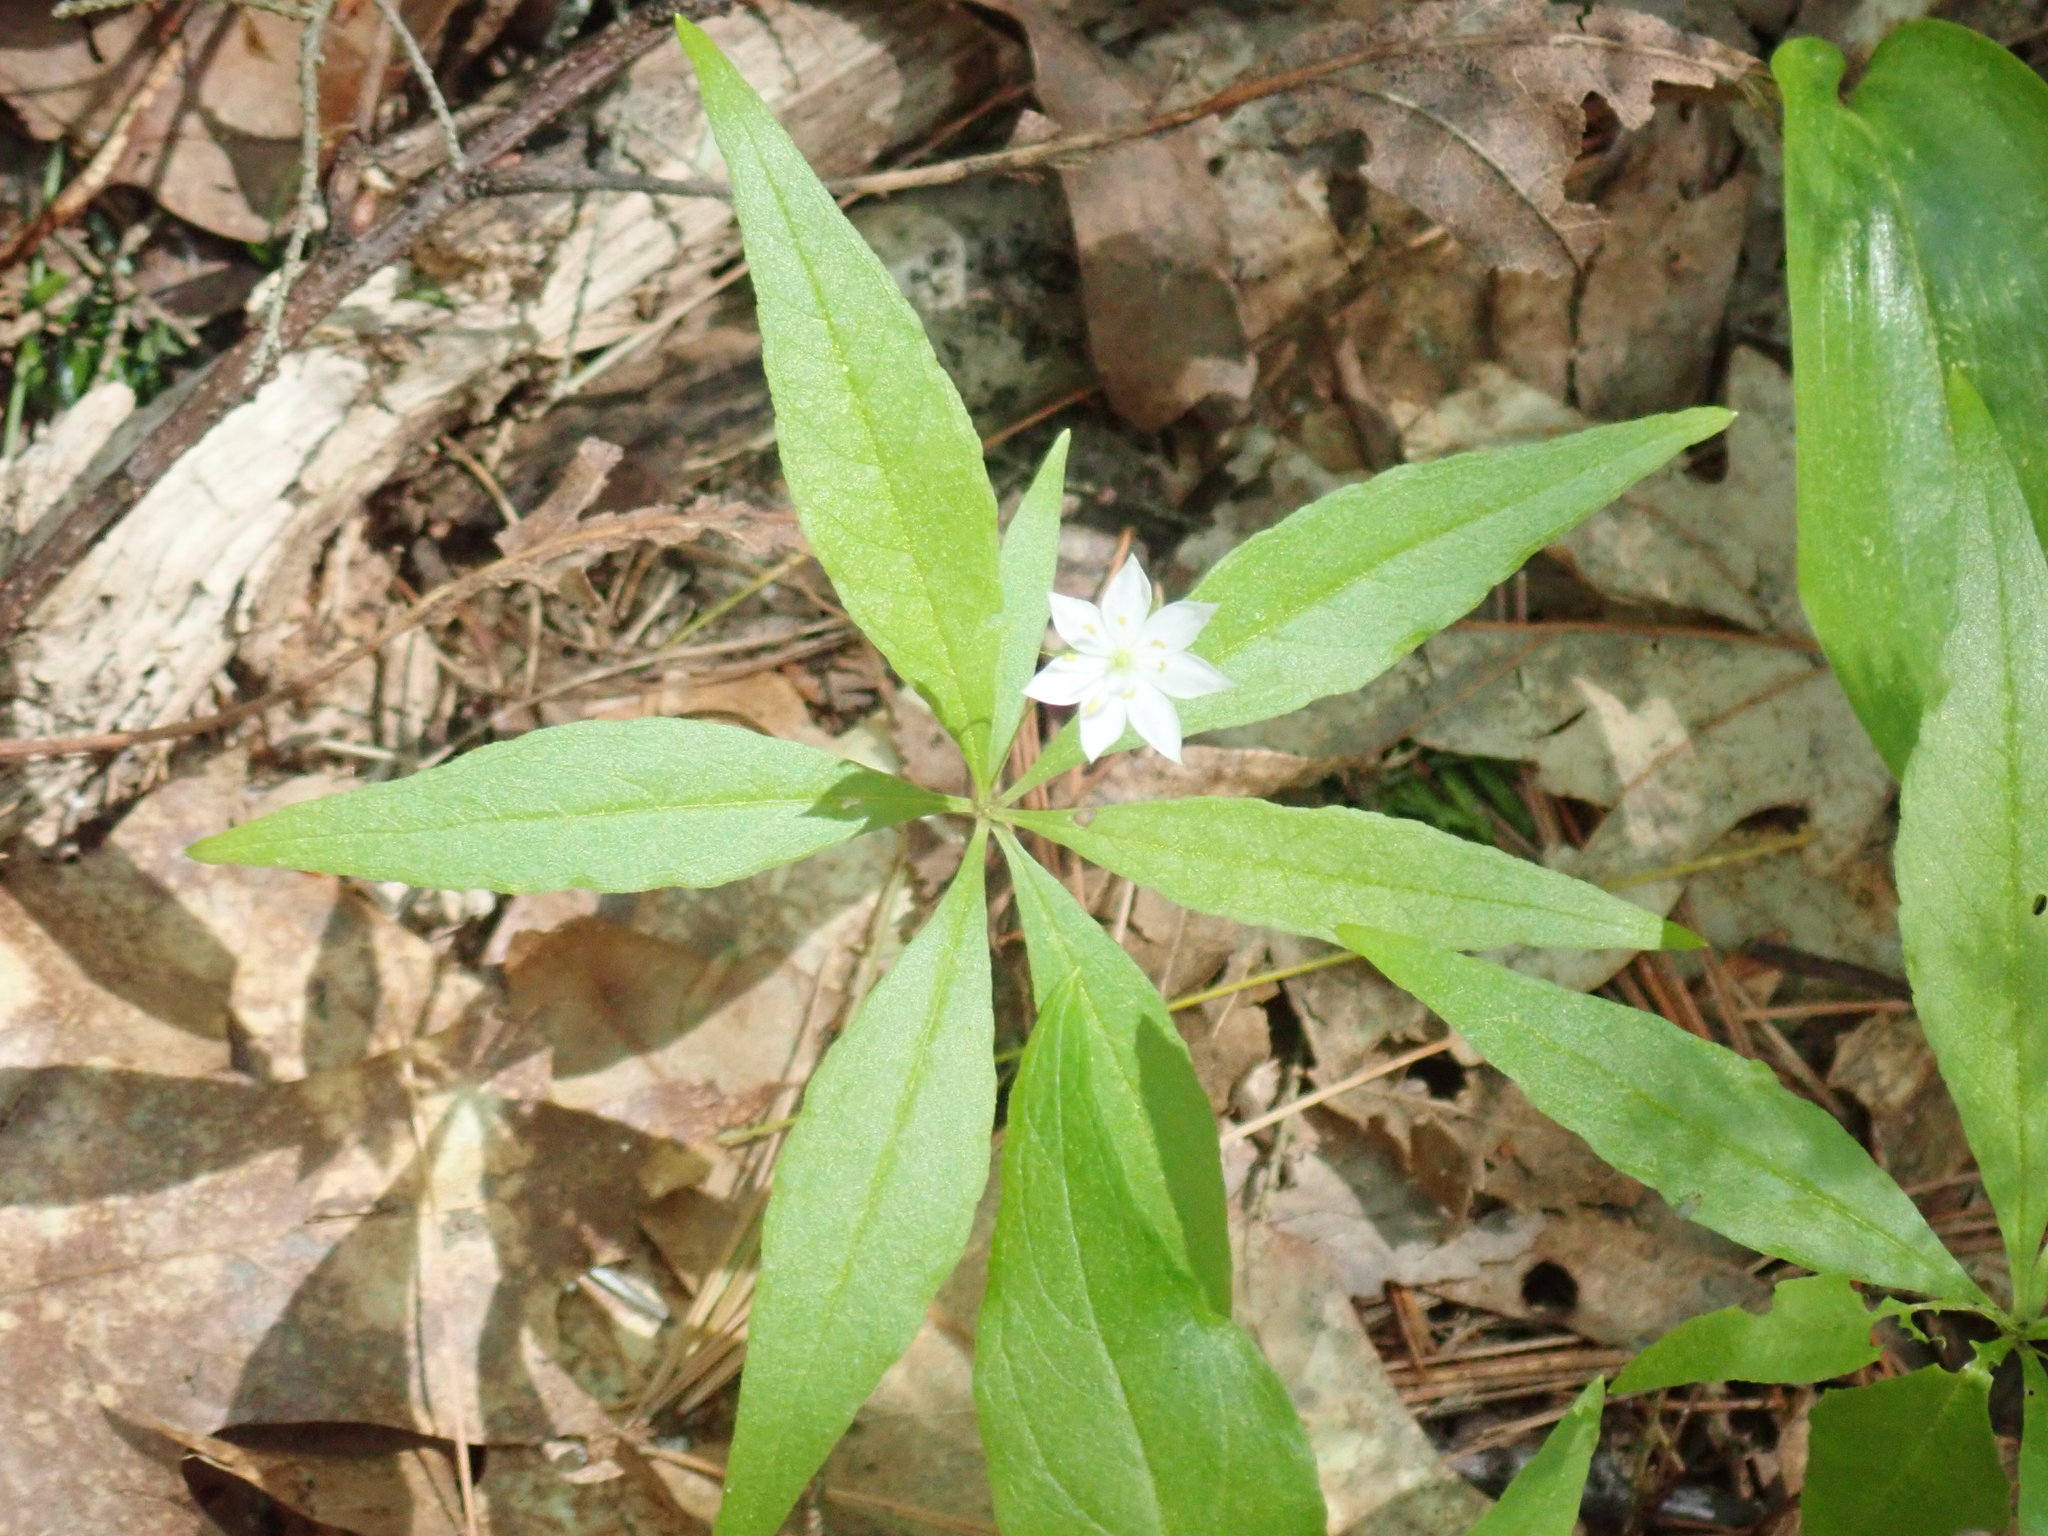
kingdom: Plantae
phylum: Tracheophyta
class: Magnoliopsida
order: Ericales
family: Primulaceae
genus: Lysimachia
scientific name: Lysimachia borealis
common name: American starflower
